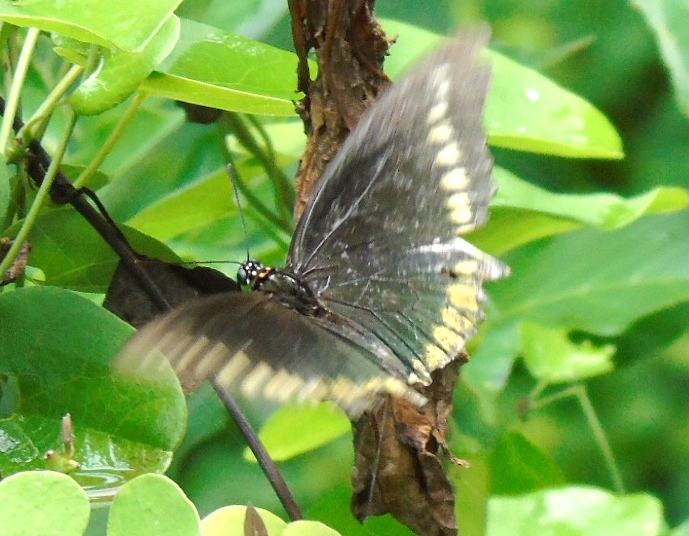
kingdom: Animalia
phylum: Arthropoda
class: Insecta
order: Lepidoptera
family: Papilionidae
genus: Battus
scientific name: Battus polydamas
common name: Polydamas swallowtail
